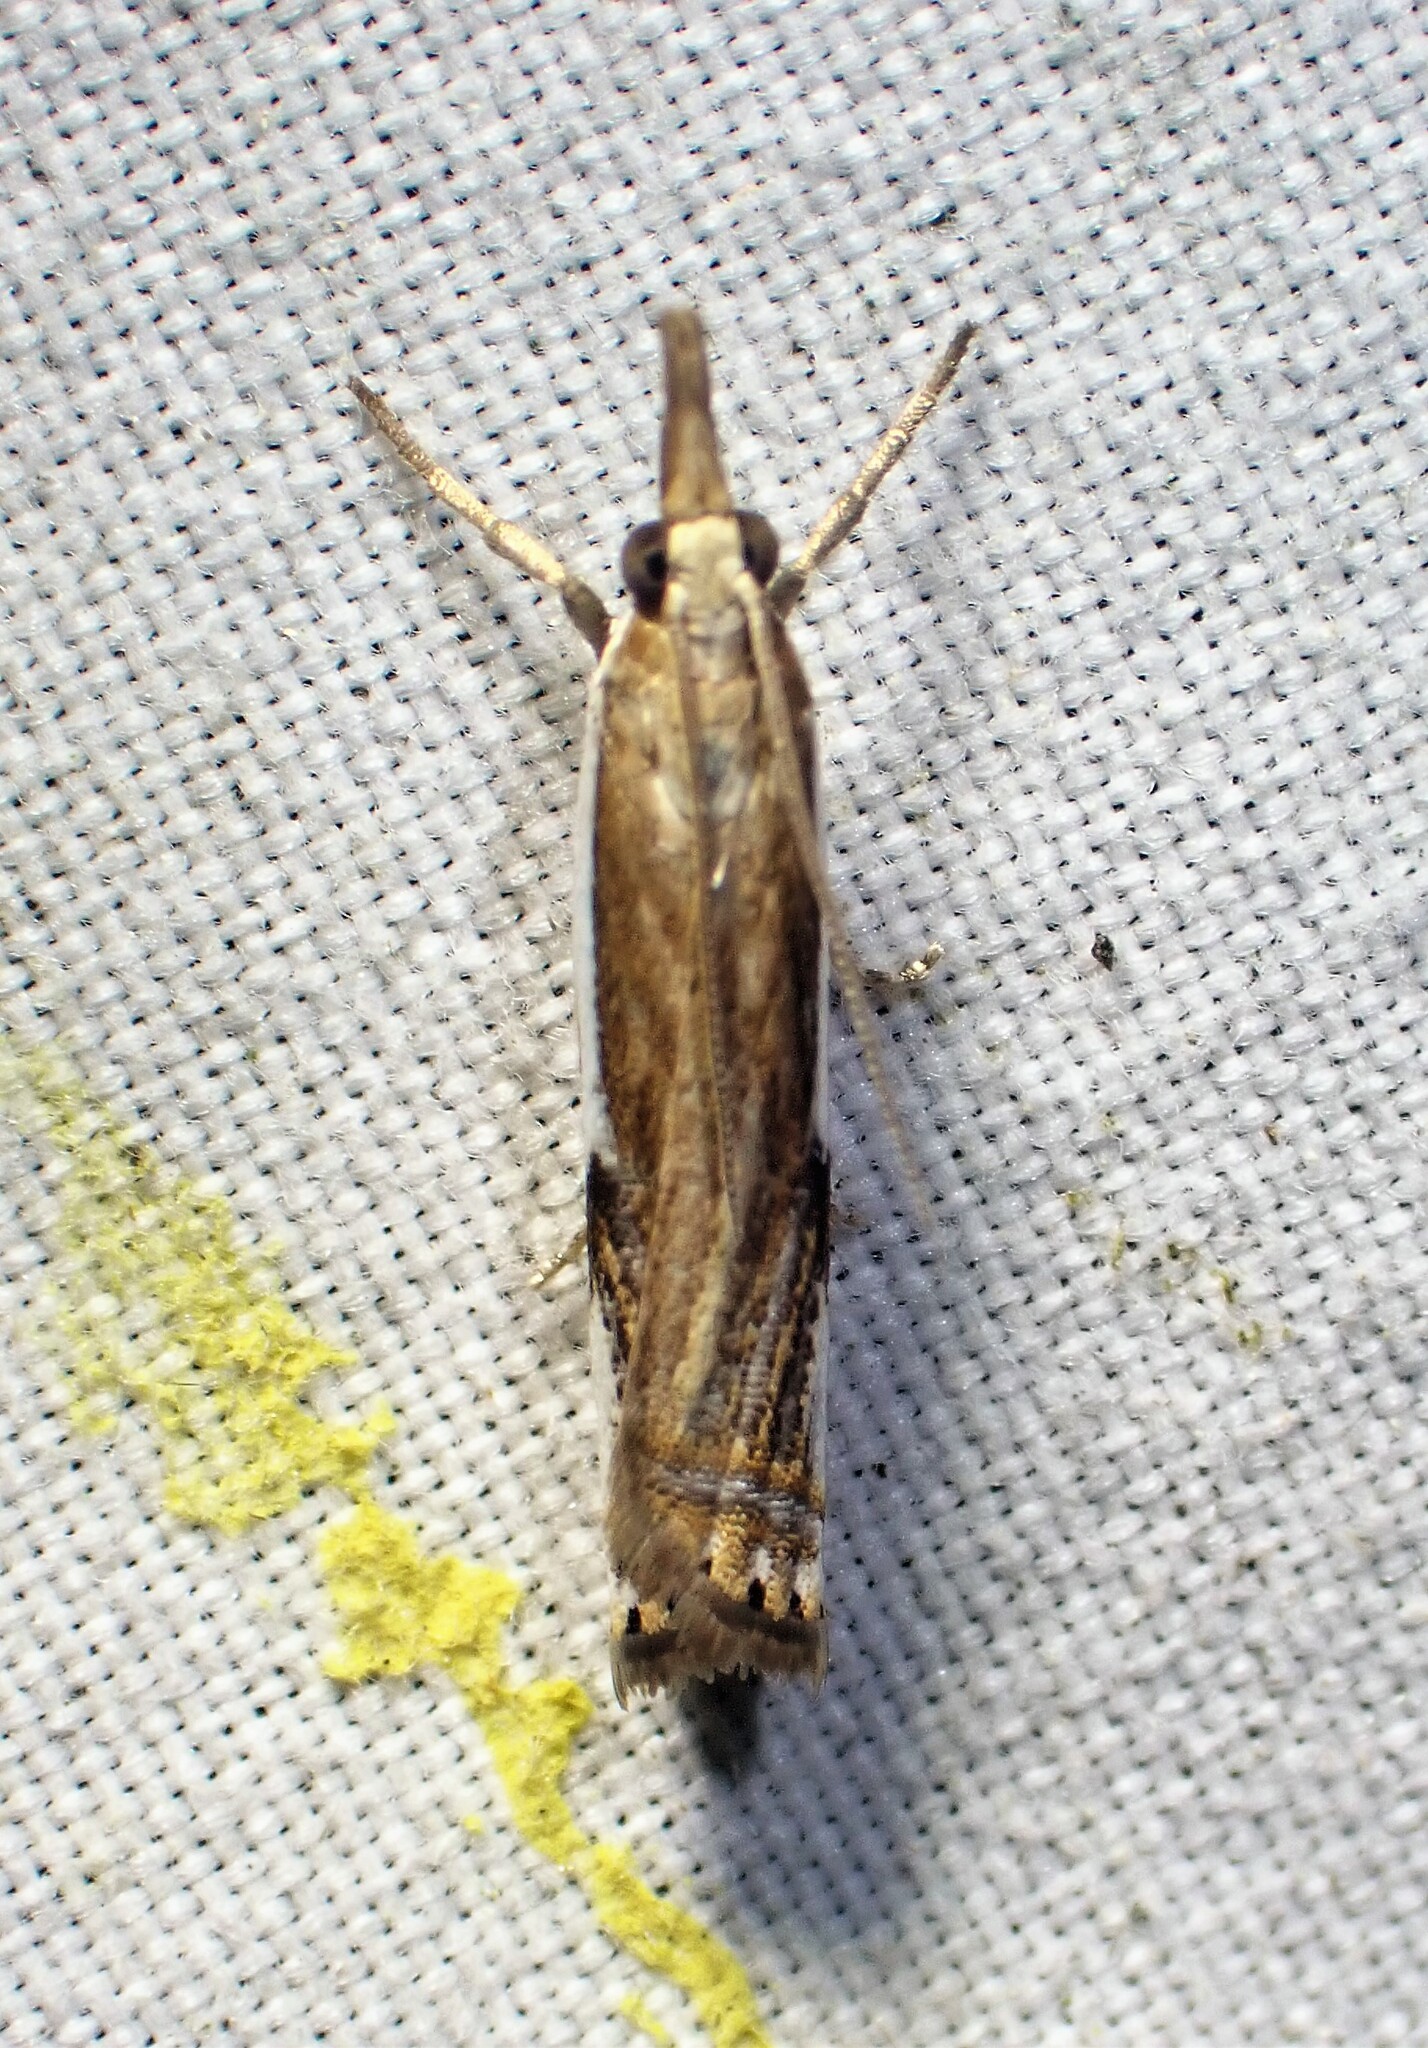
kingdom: Animalia
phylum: Arthropoda
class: Insecta
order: Lepidoptera
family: Crambidae
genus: Crambus
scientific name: Crambus agitatellus
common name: Double-banded grass-veneer
